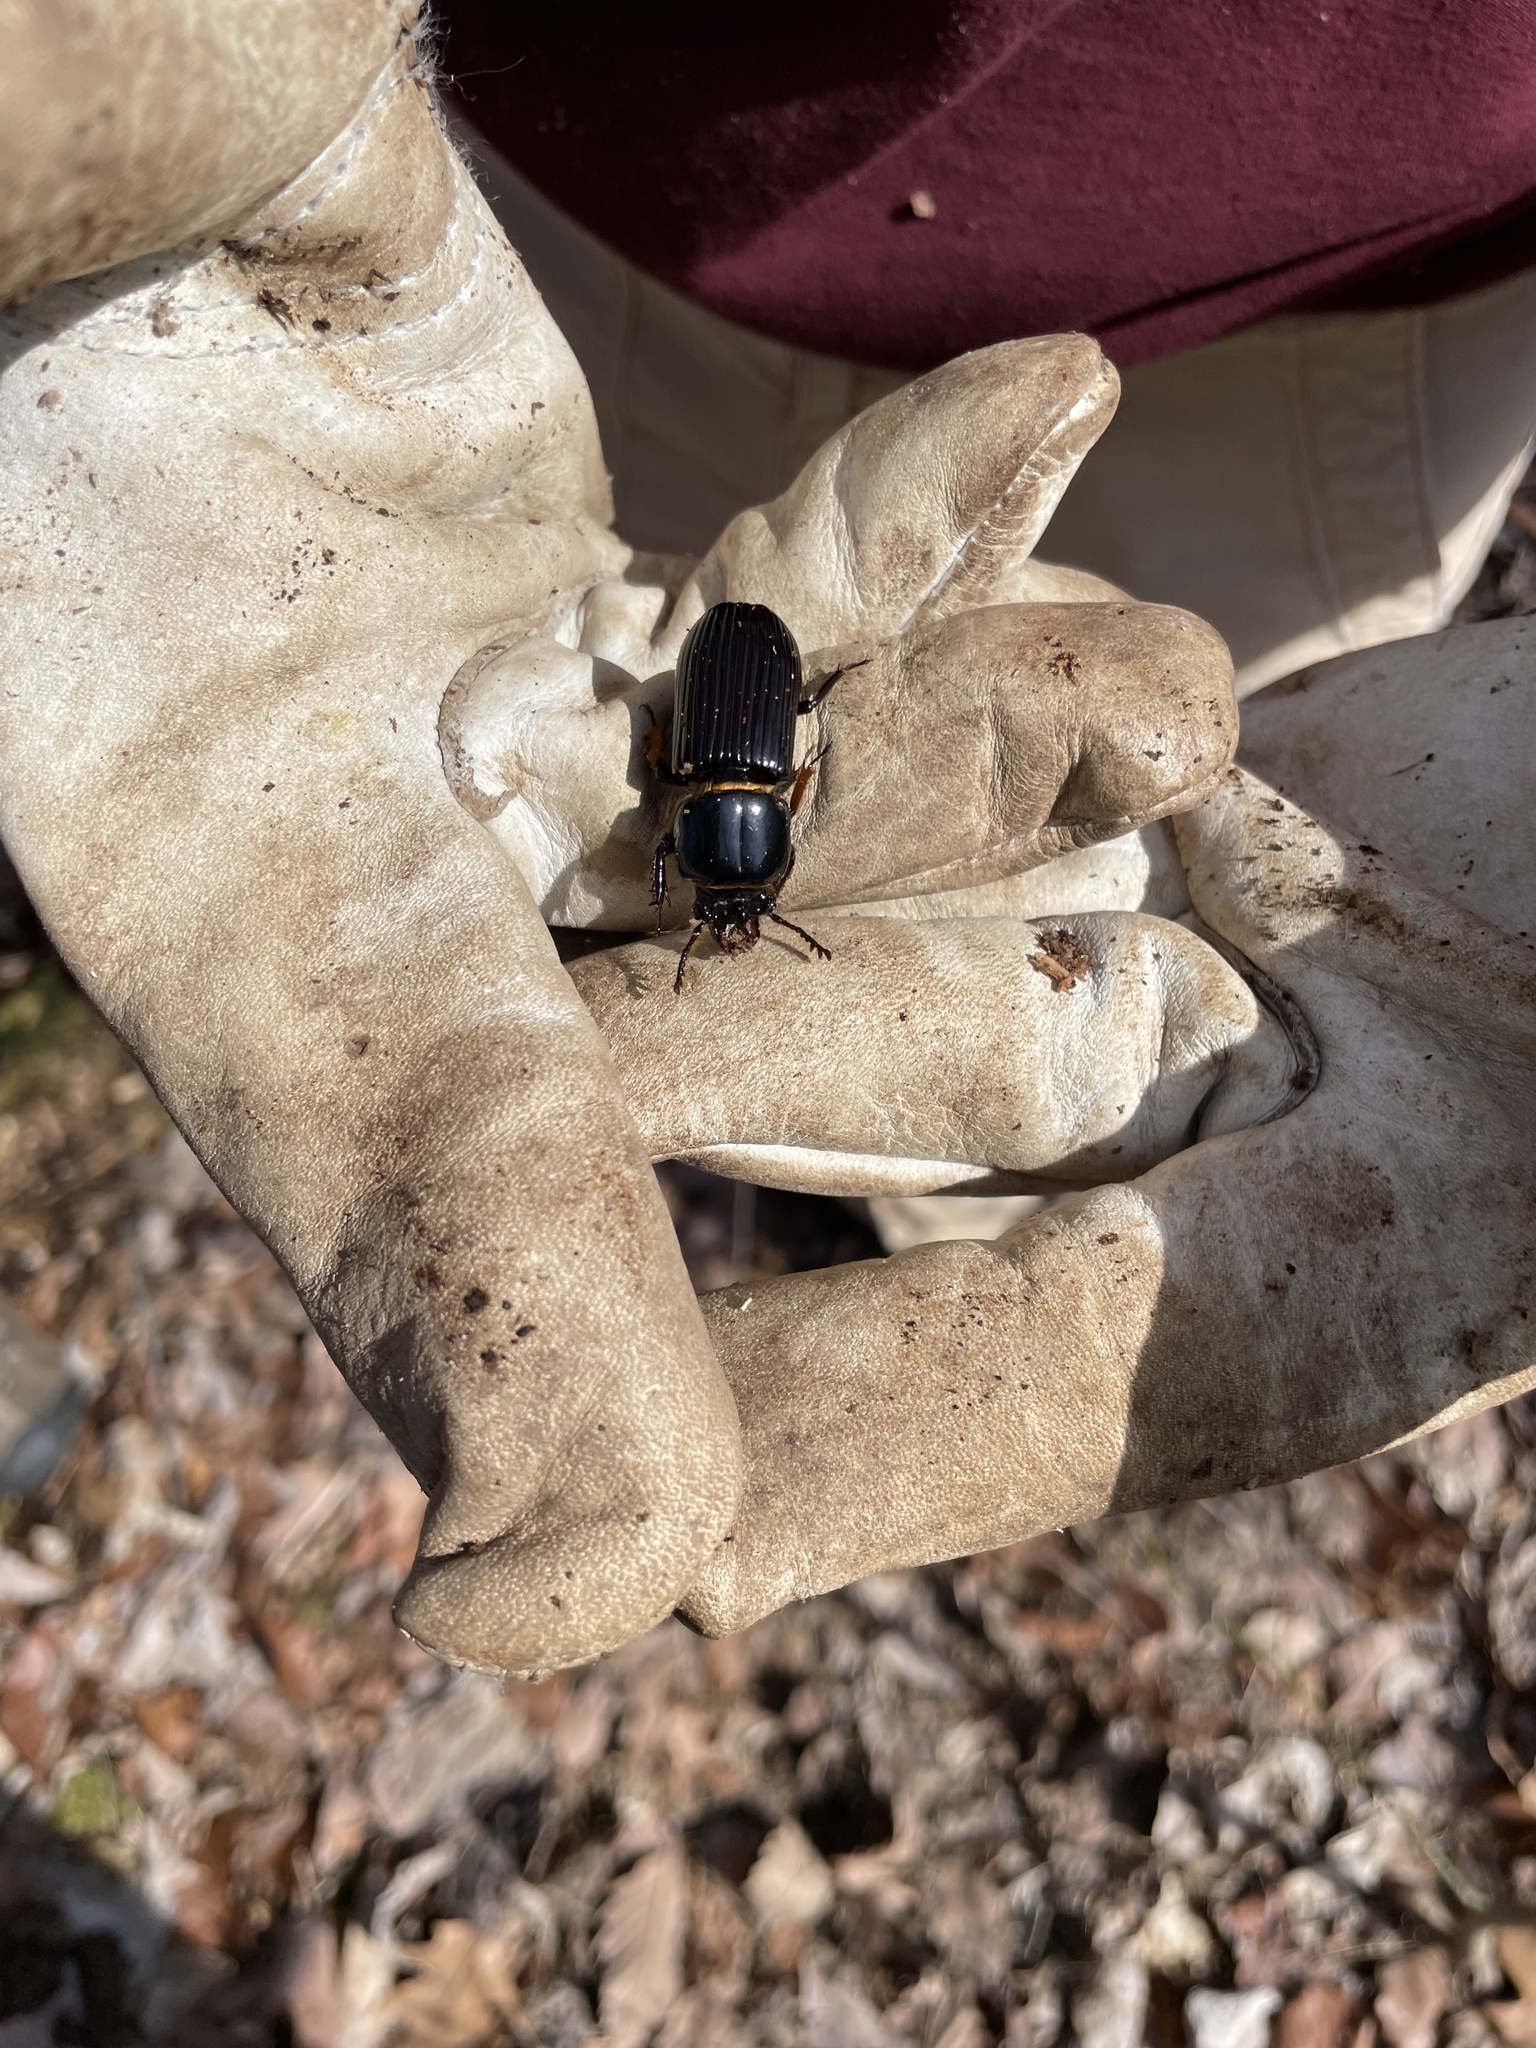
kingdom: Animalia
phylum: Arthropoda
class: Insecta
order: Coleoptera
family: Passalidae
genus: Odontotaenius
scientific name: Odontotaenius disjunctus
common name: Patent leather beetle
